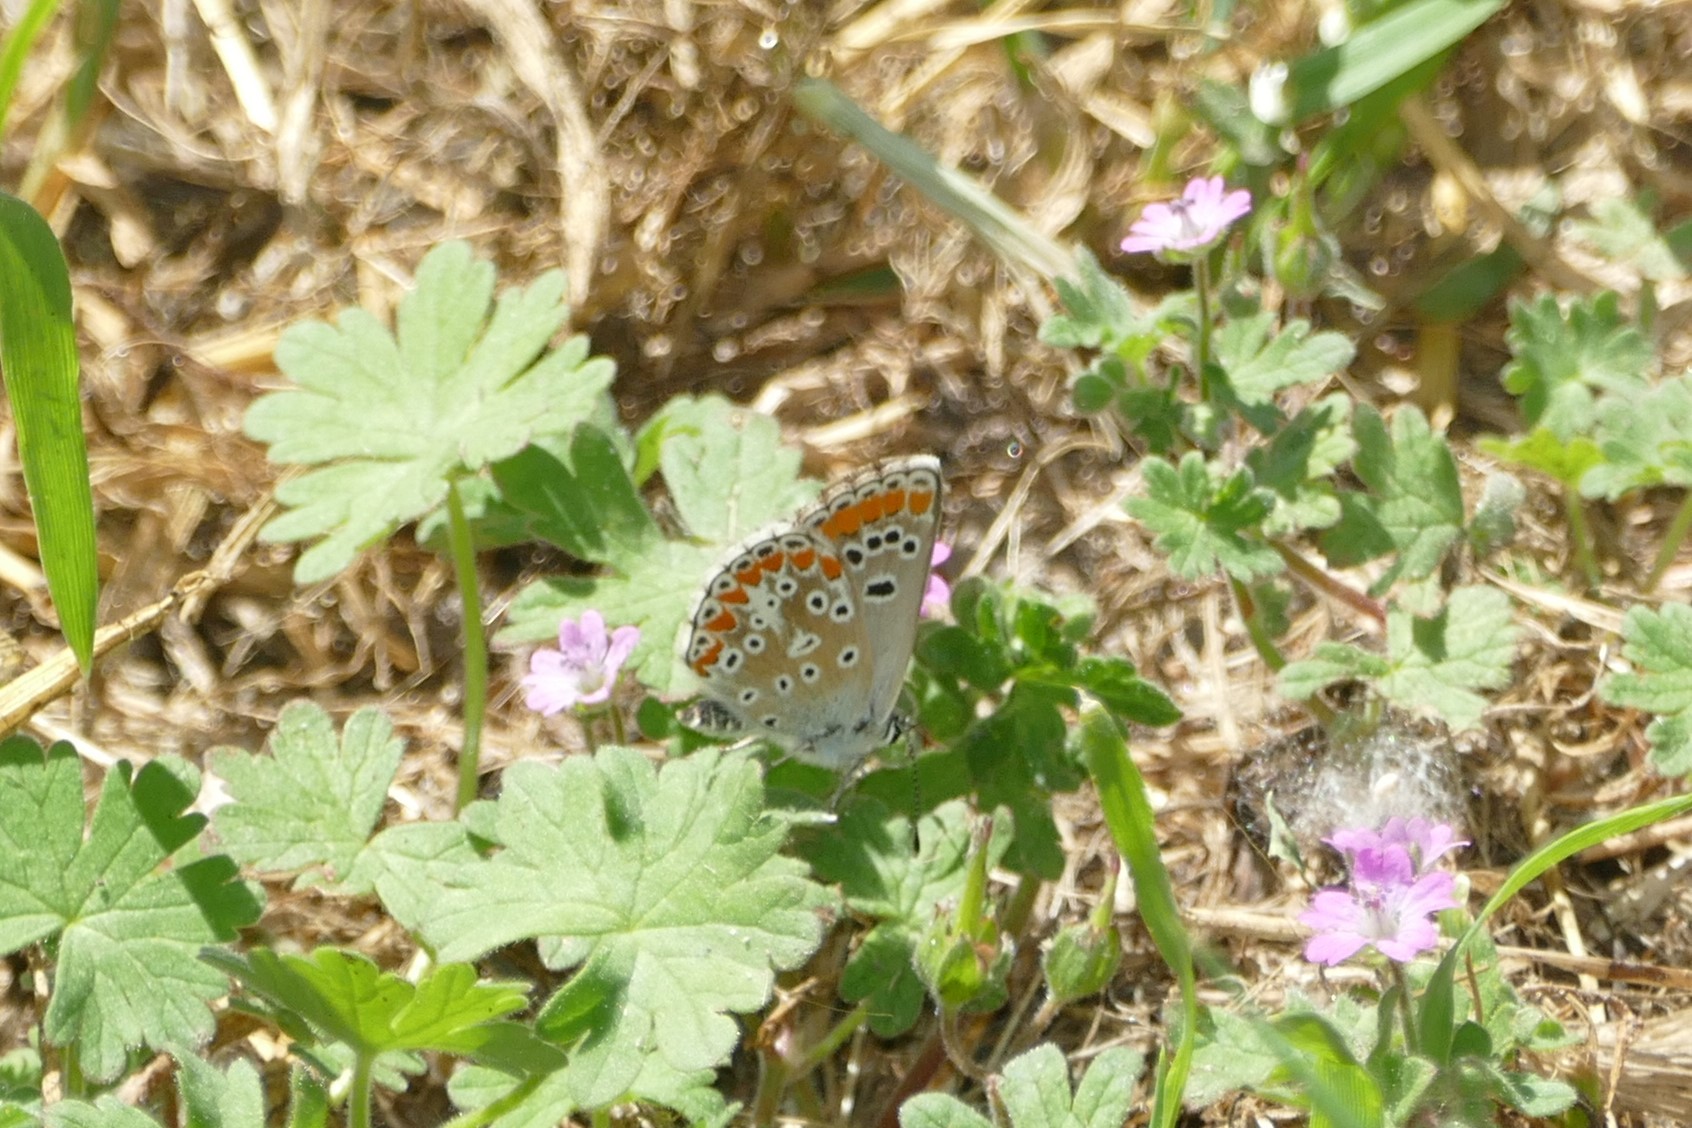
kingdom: Animalia
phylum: Arthropoda
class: Insecta
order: Lepidoptera
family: Lycaenidae
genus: Aricia
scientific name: Aricia cramera
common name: Eschscholtz´s brown  argus
